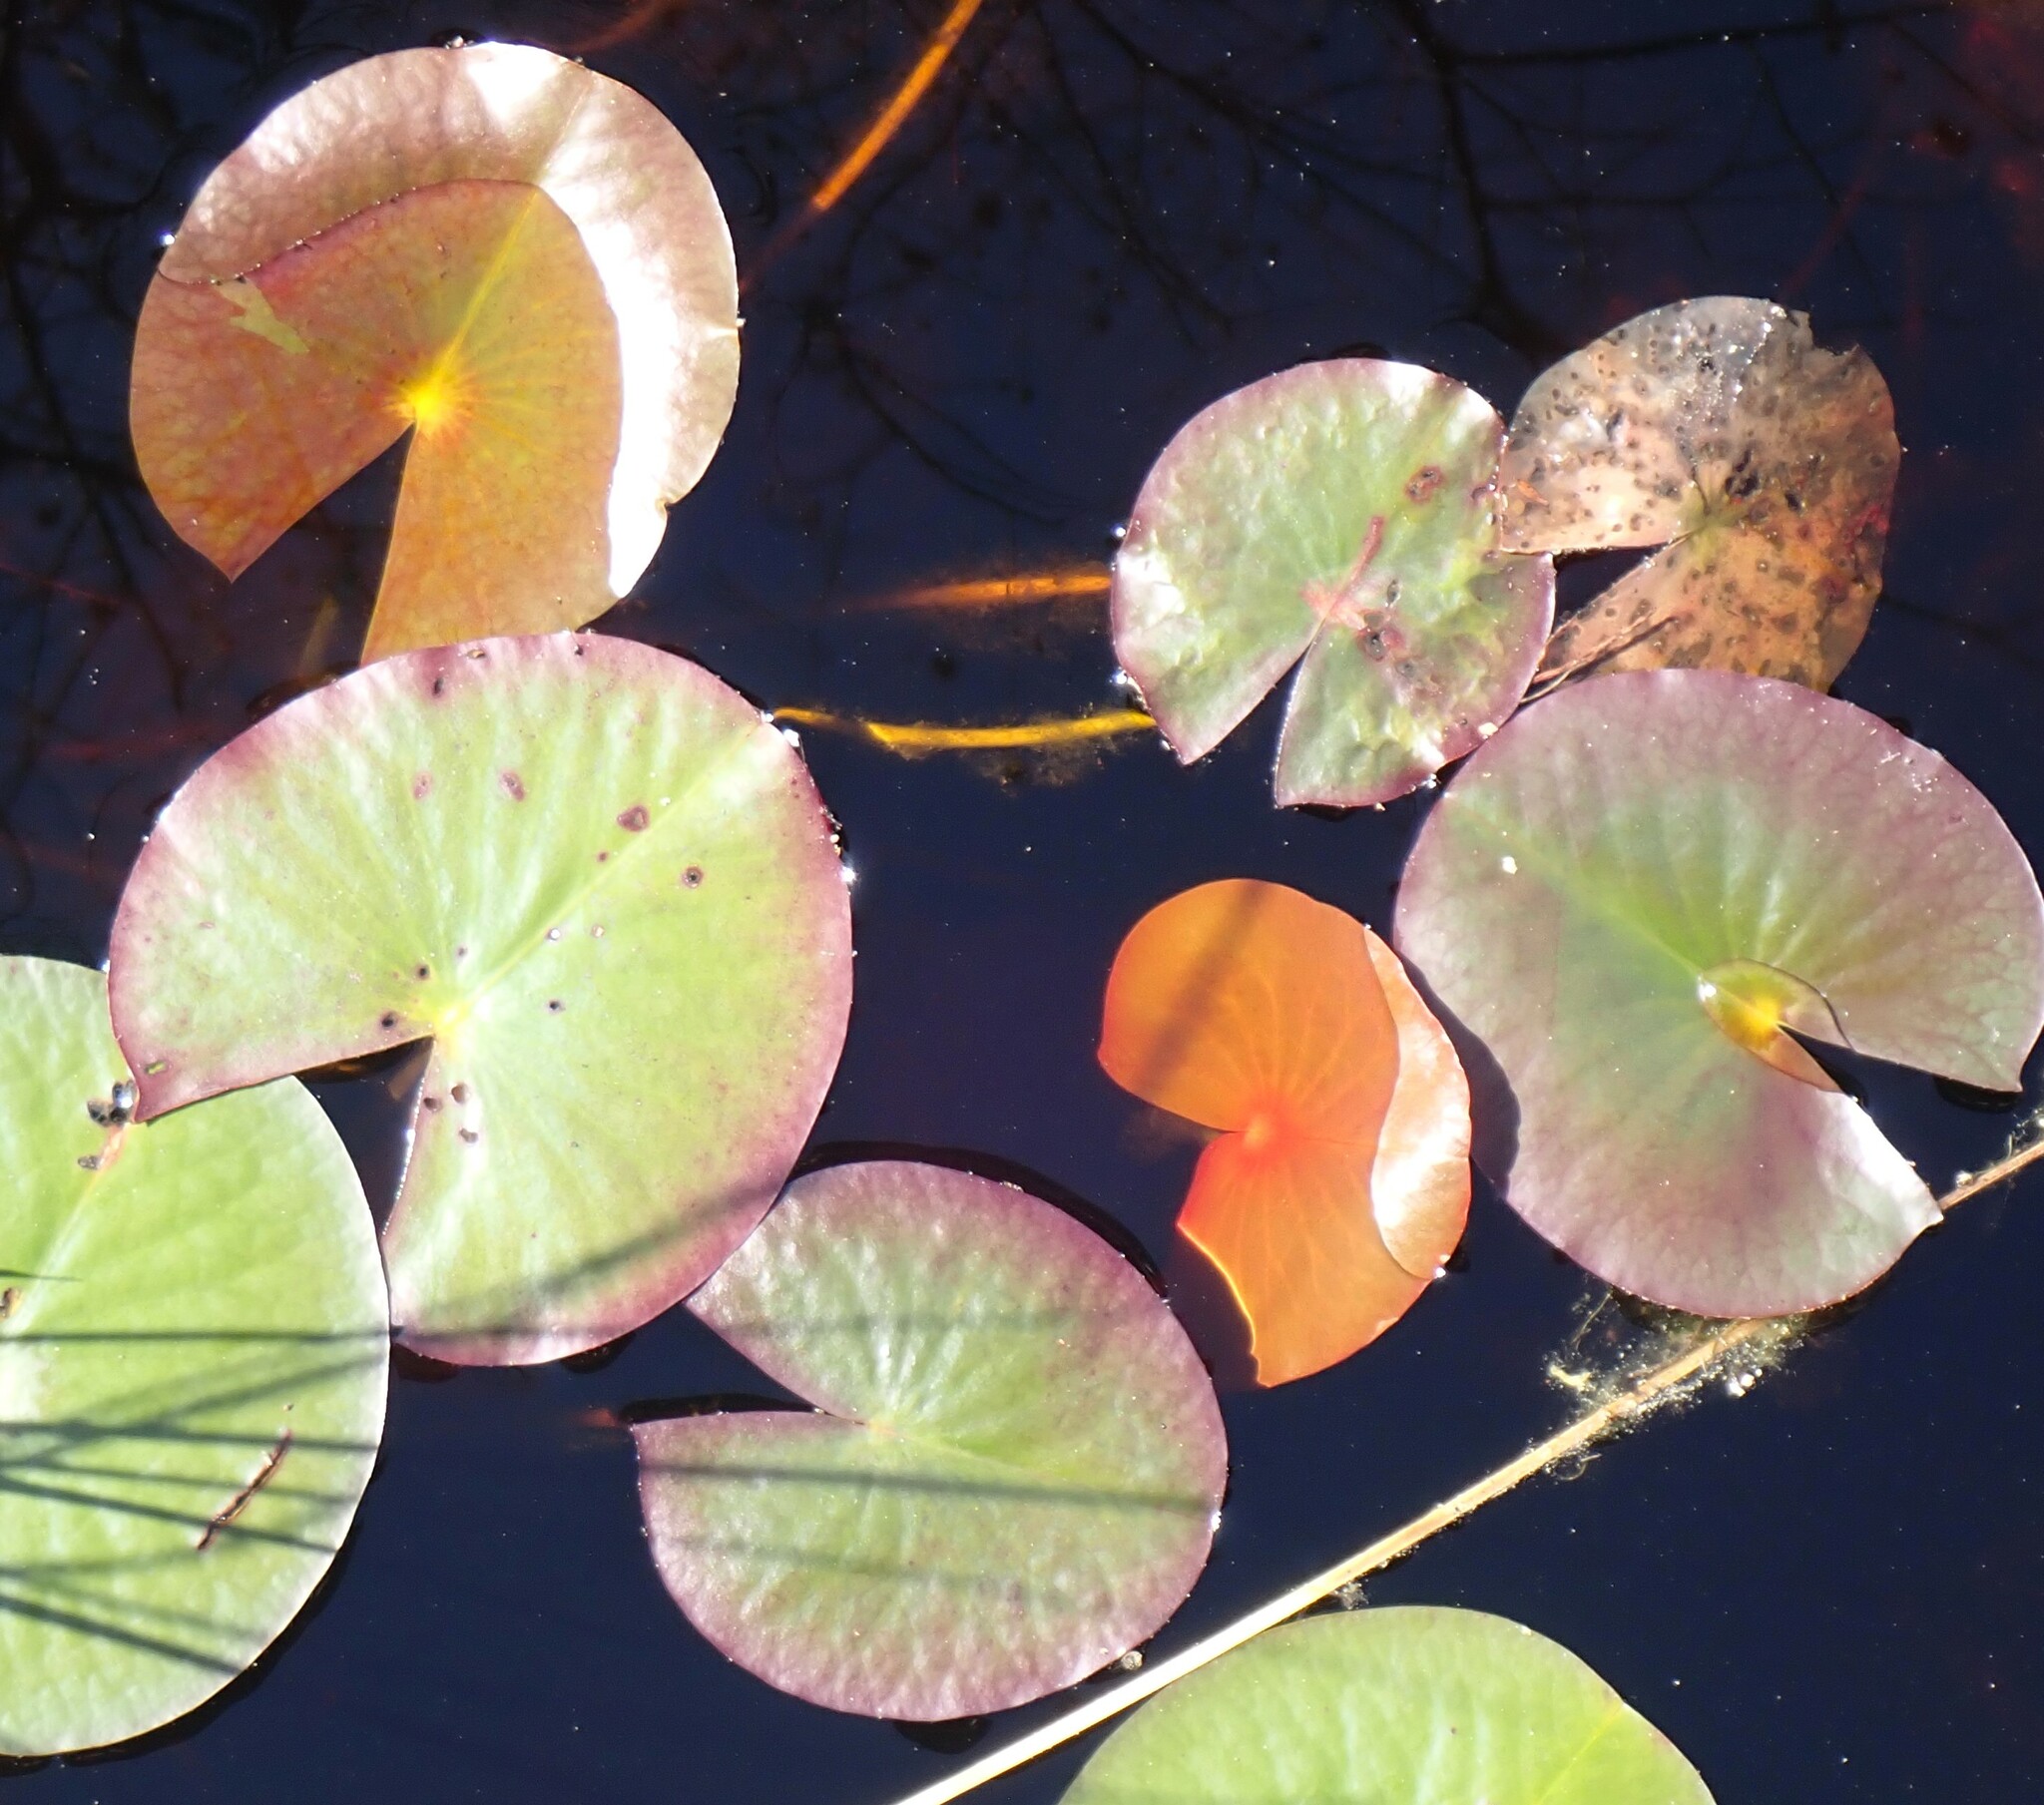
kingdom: Plantae
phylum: Tracheophyta
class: Magnoliopsida
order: Nymphaeales
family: Nymphaeaceae
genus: Nymphaea
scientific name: Nymphaea odorata
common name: Fragrant water-lily
